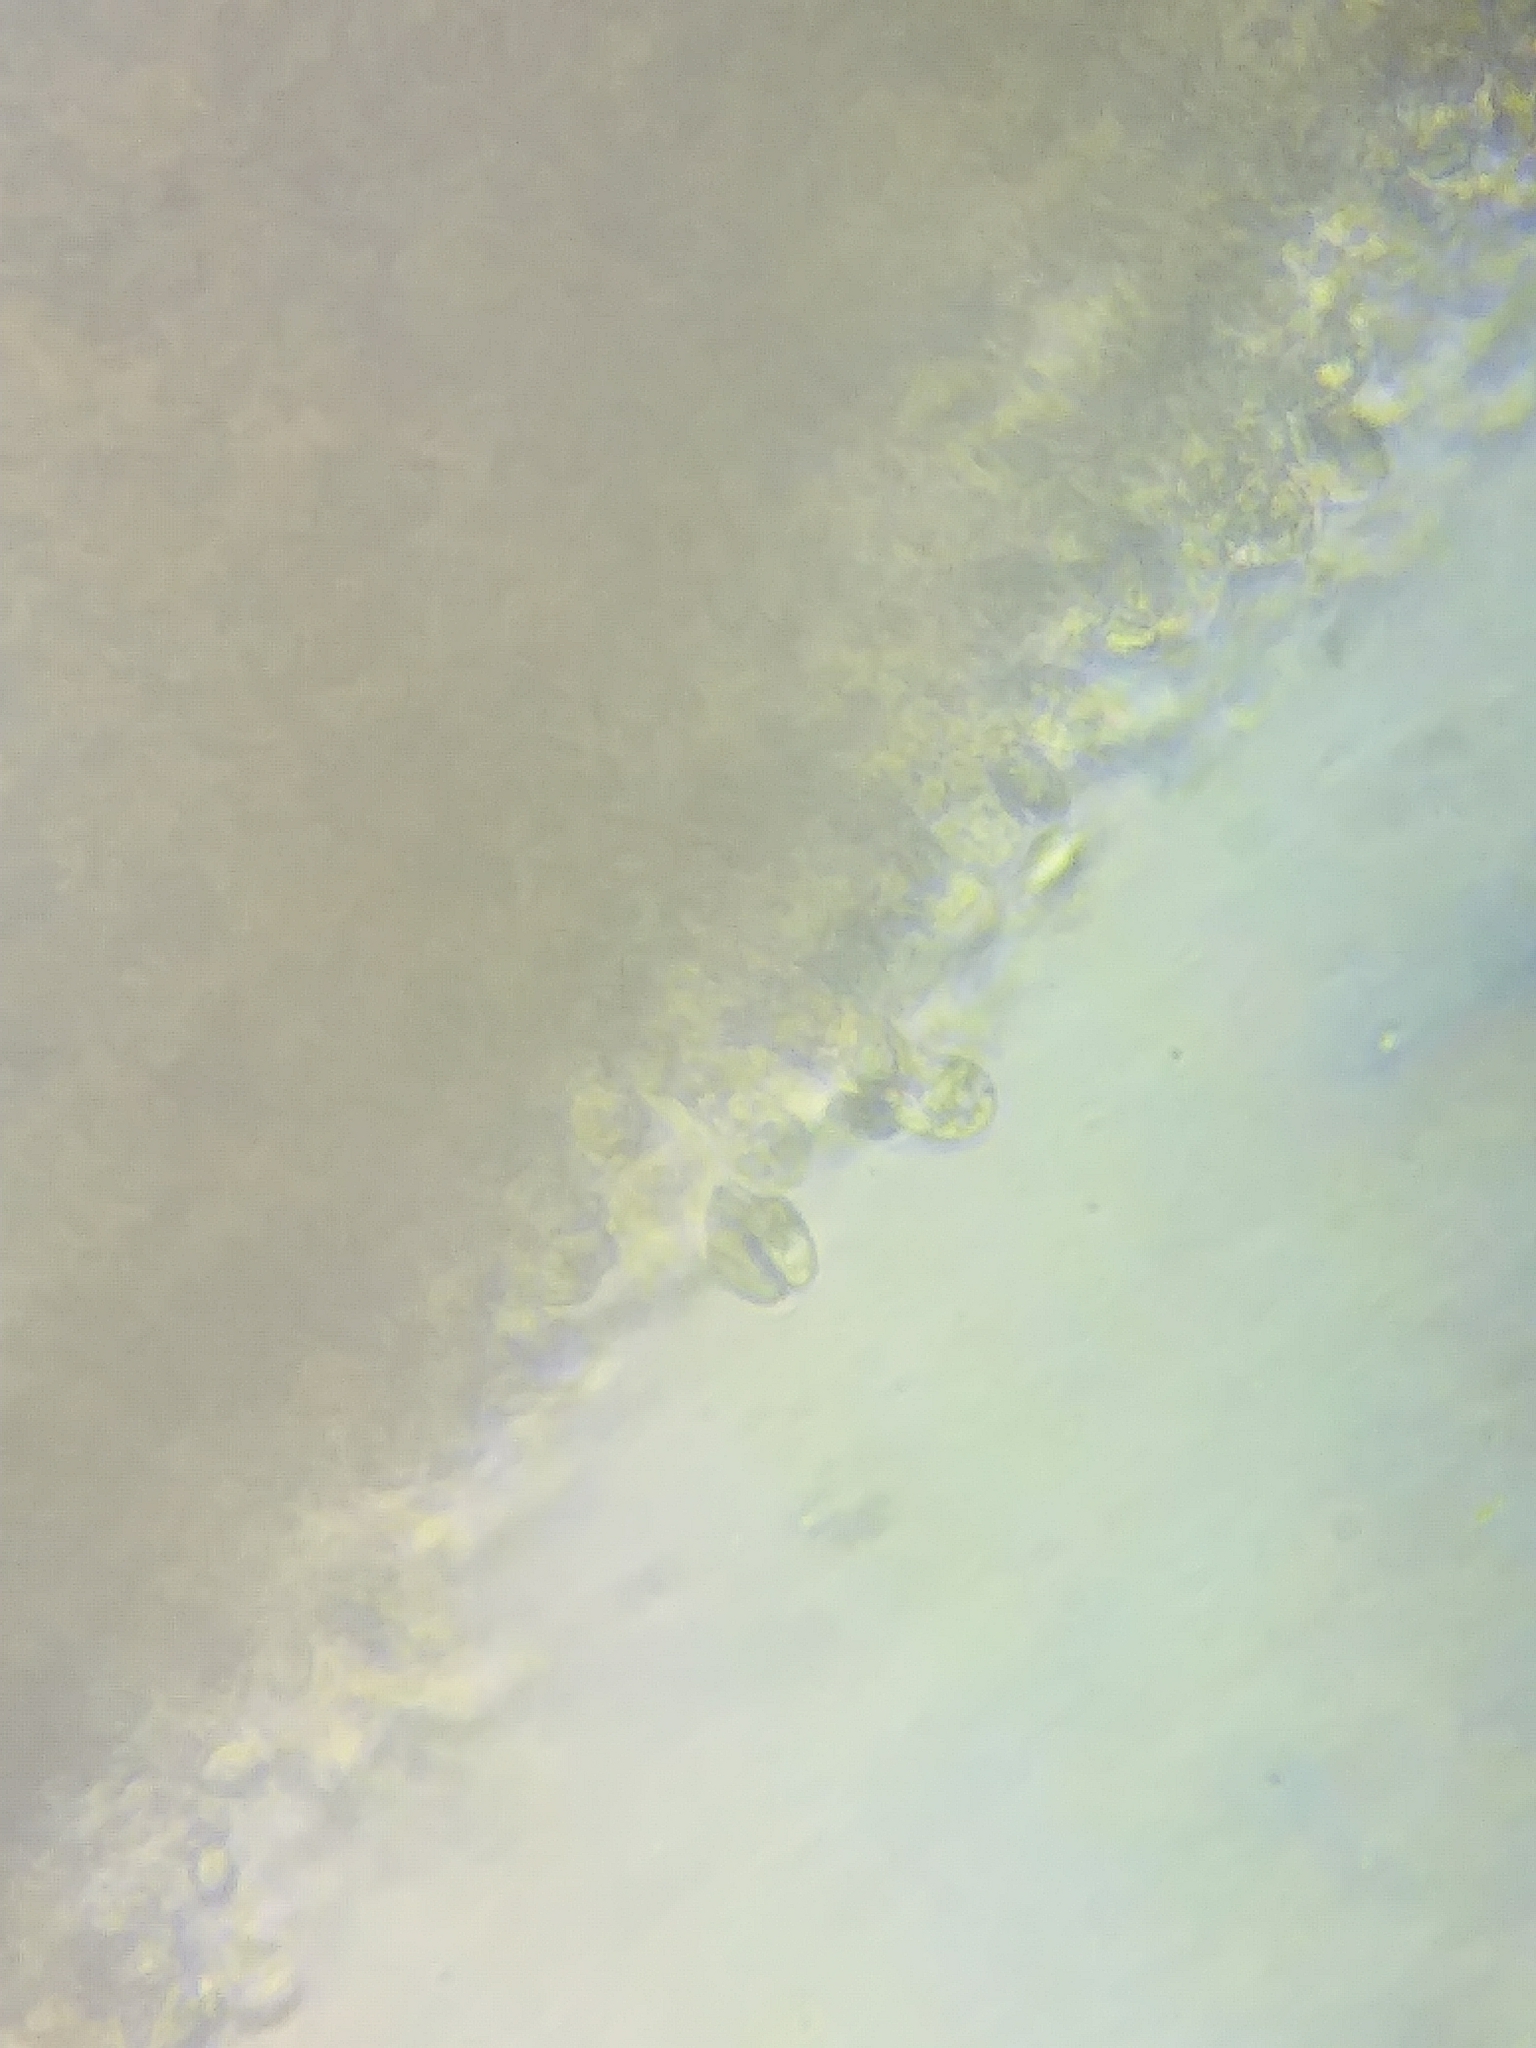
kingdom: Fungi
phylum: Basidiomycota
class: Agaricomycetes
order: Agaricales
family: Hygrophoraceae
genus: Hygrophorus
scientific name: Hygrophorus sordidus
